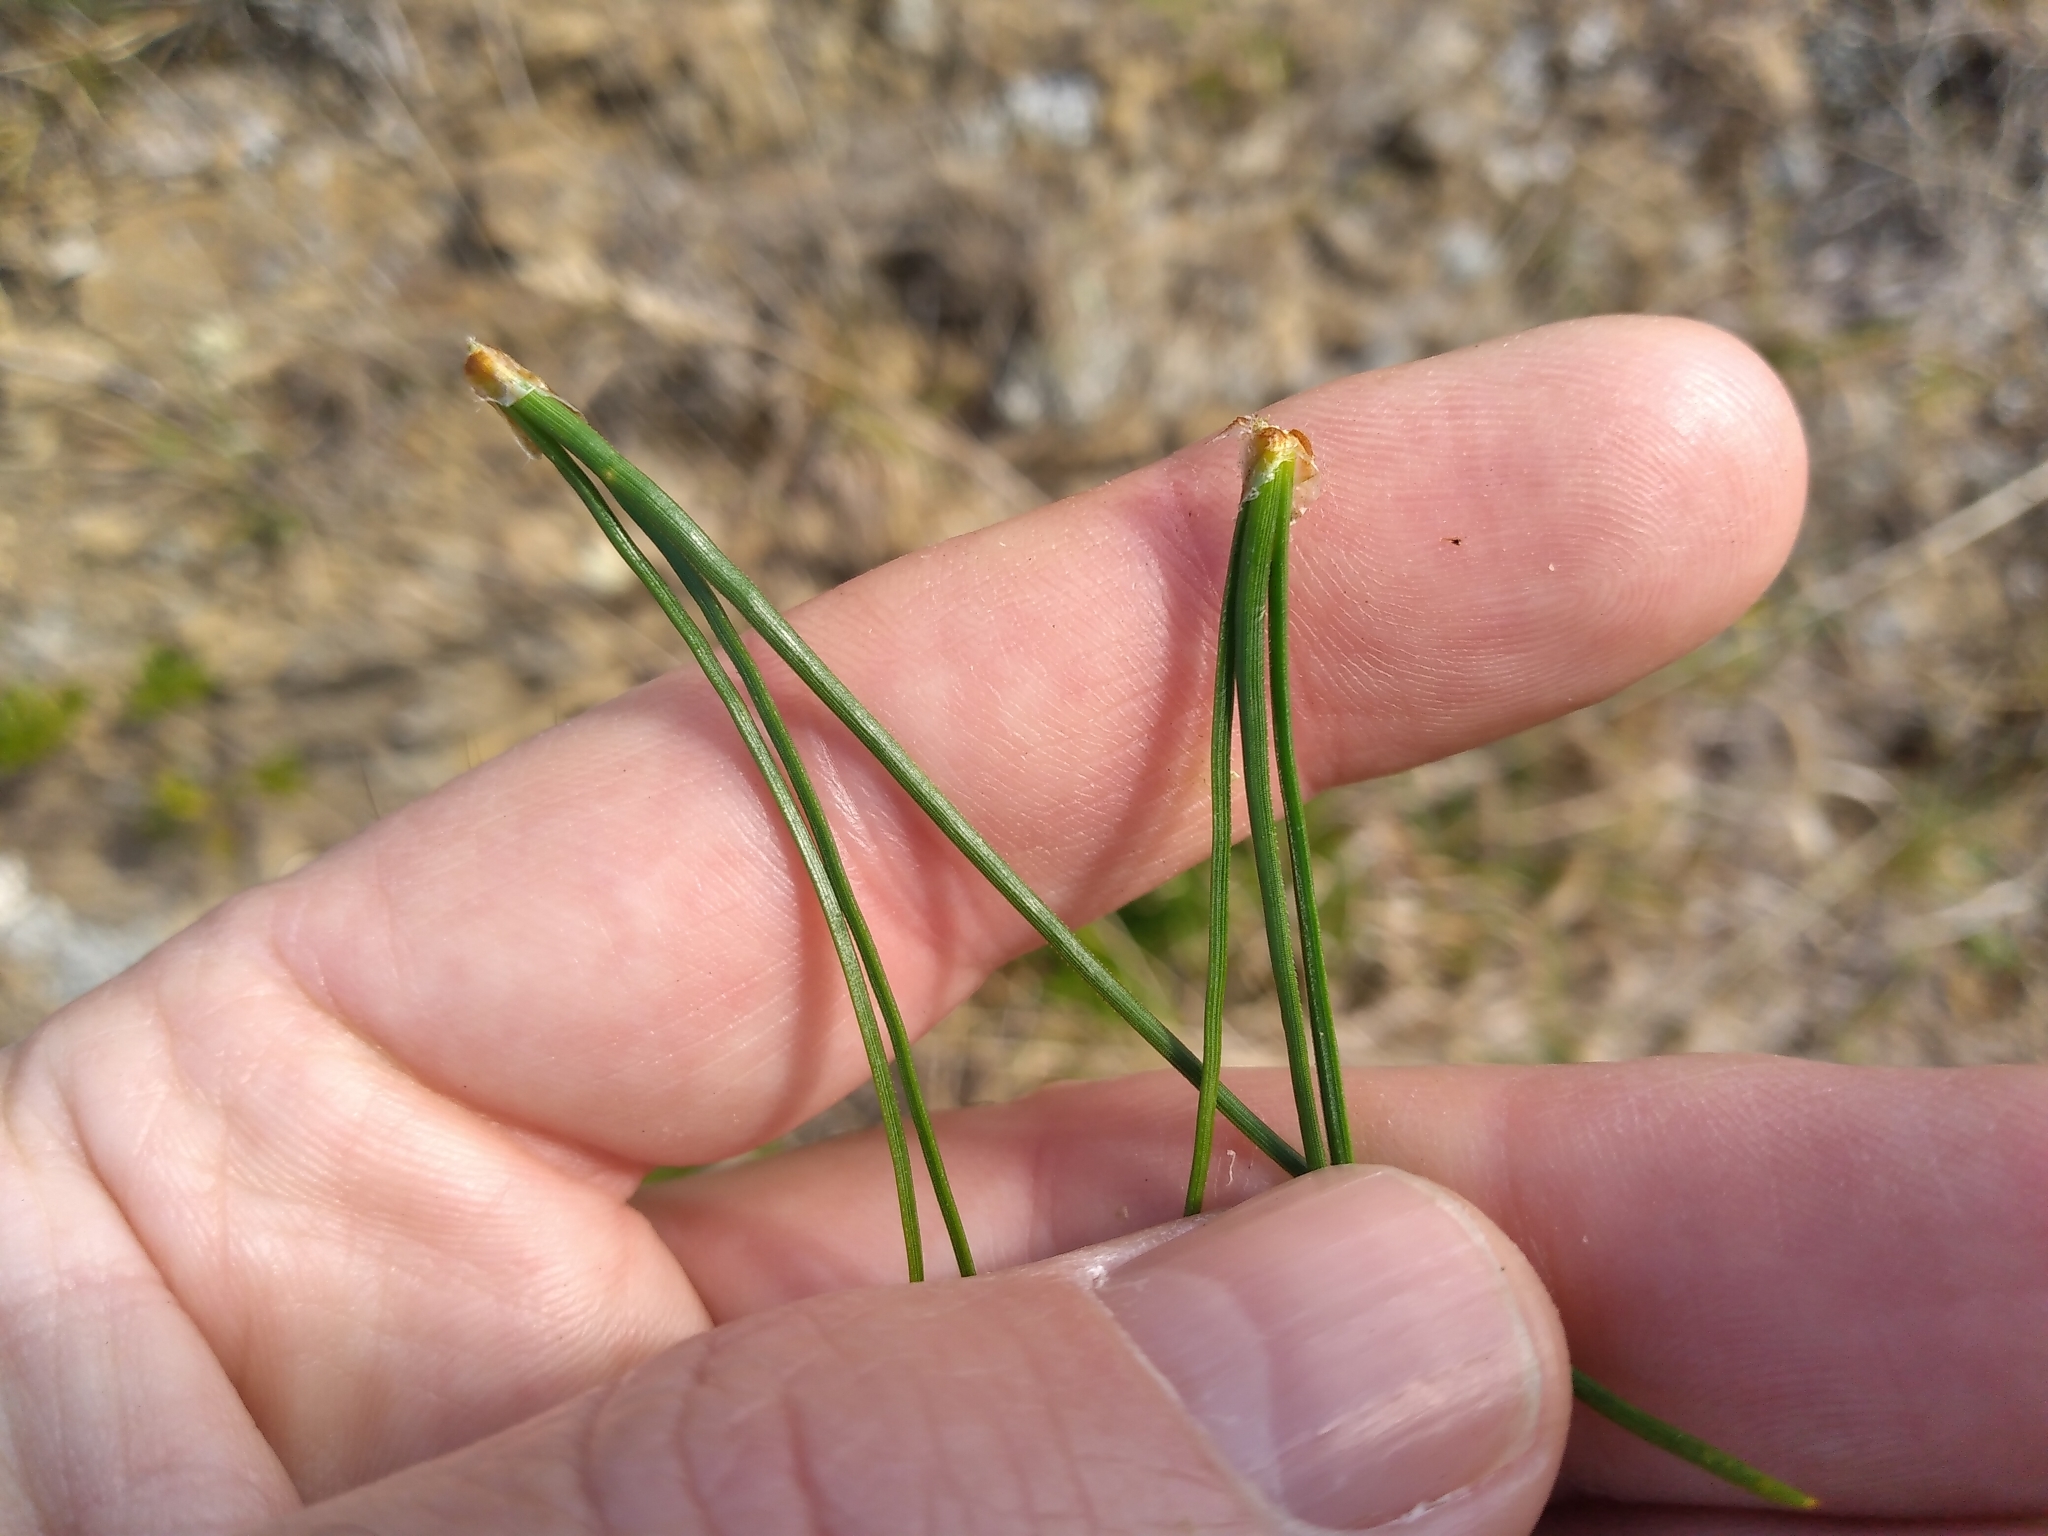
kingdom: Plantae
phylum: Tracheophyta
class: Pinopsida
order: Pinales
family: Pinaceae
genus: Pinus
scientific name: Pinus radiata
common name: Monterey pine
